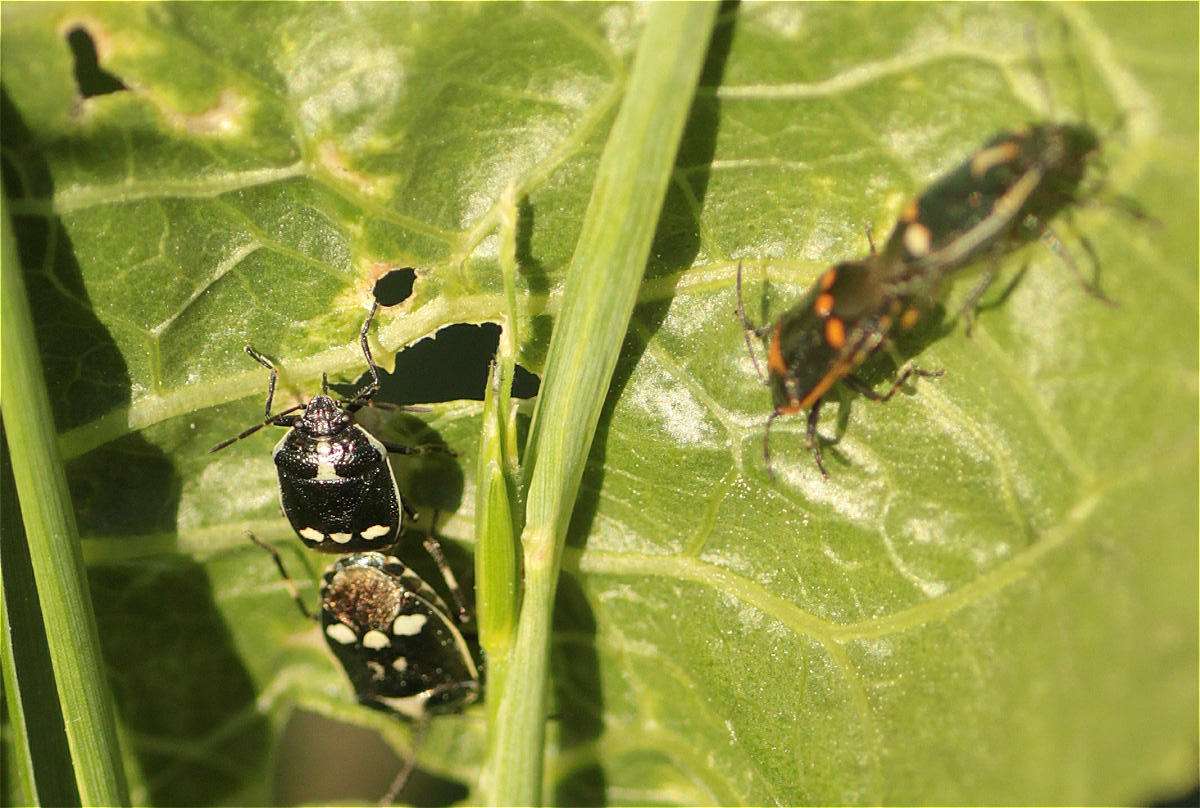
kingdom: Animalia
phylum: Arthropoda
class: Insecta
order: Hemiptera
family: Pentatomidae
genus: Eurydema
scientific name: Eurydema oleracea
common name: Cabbage bug
